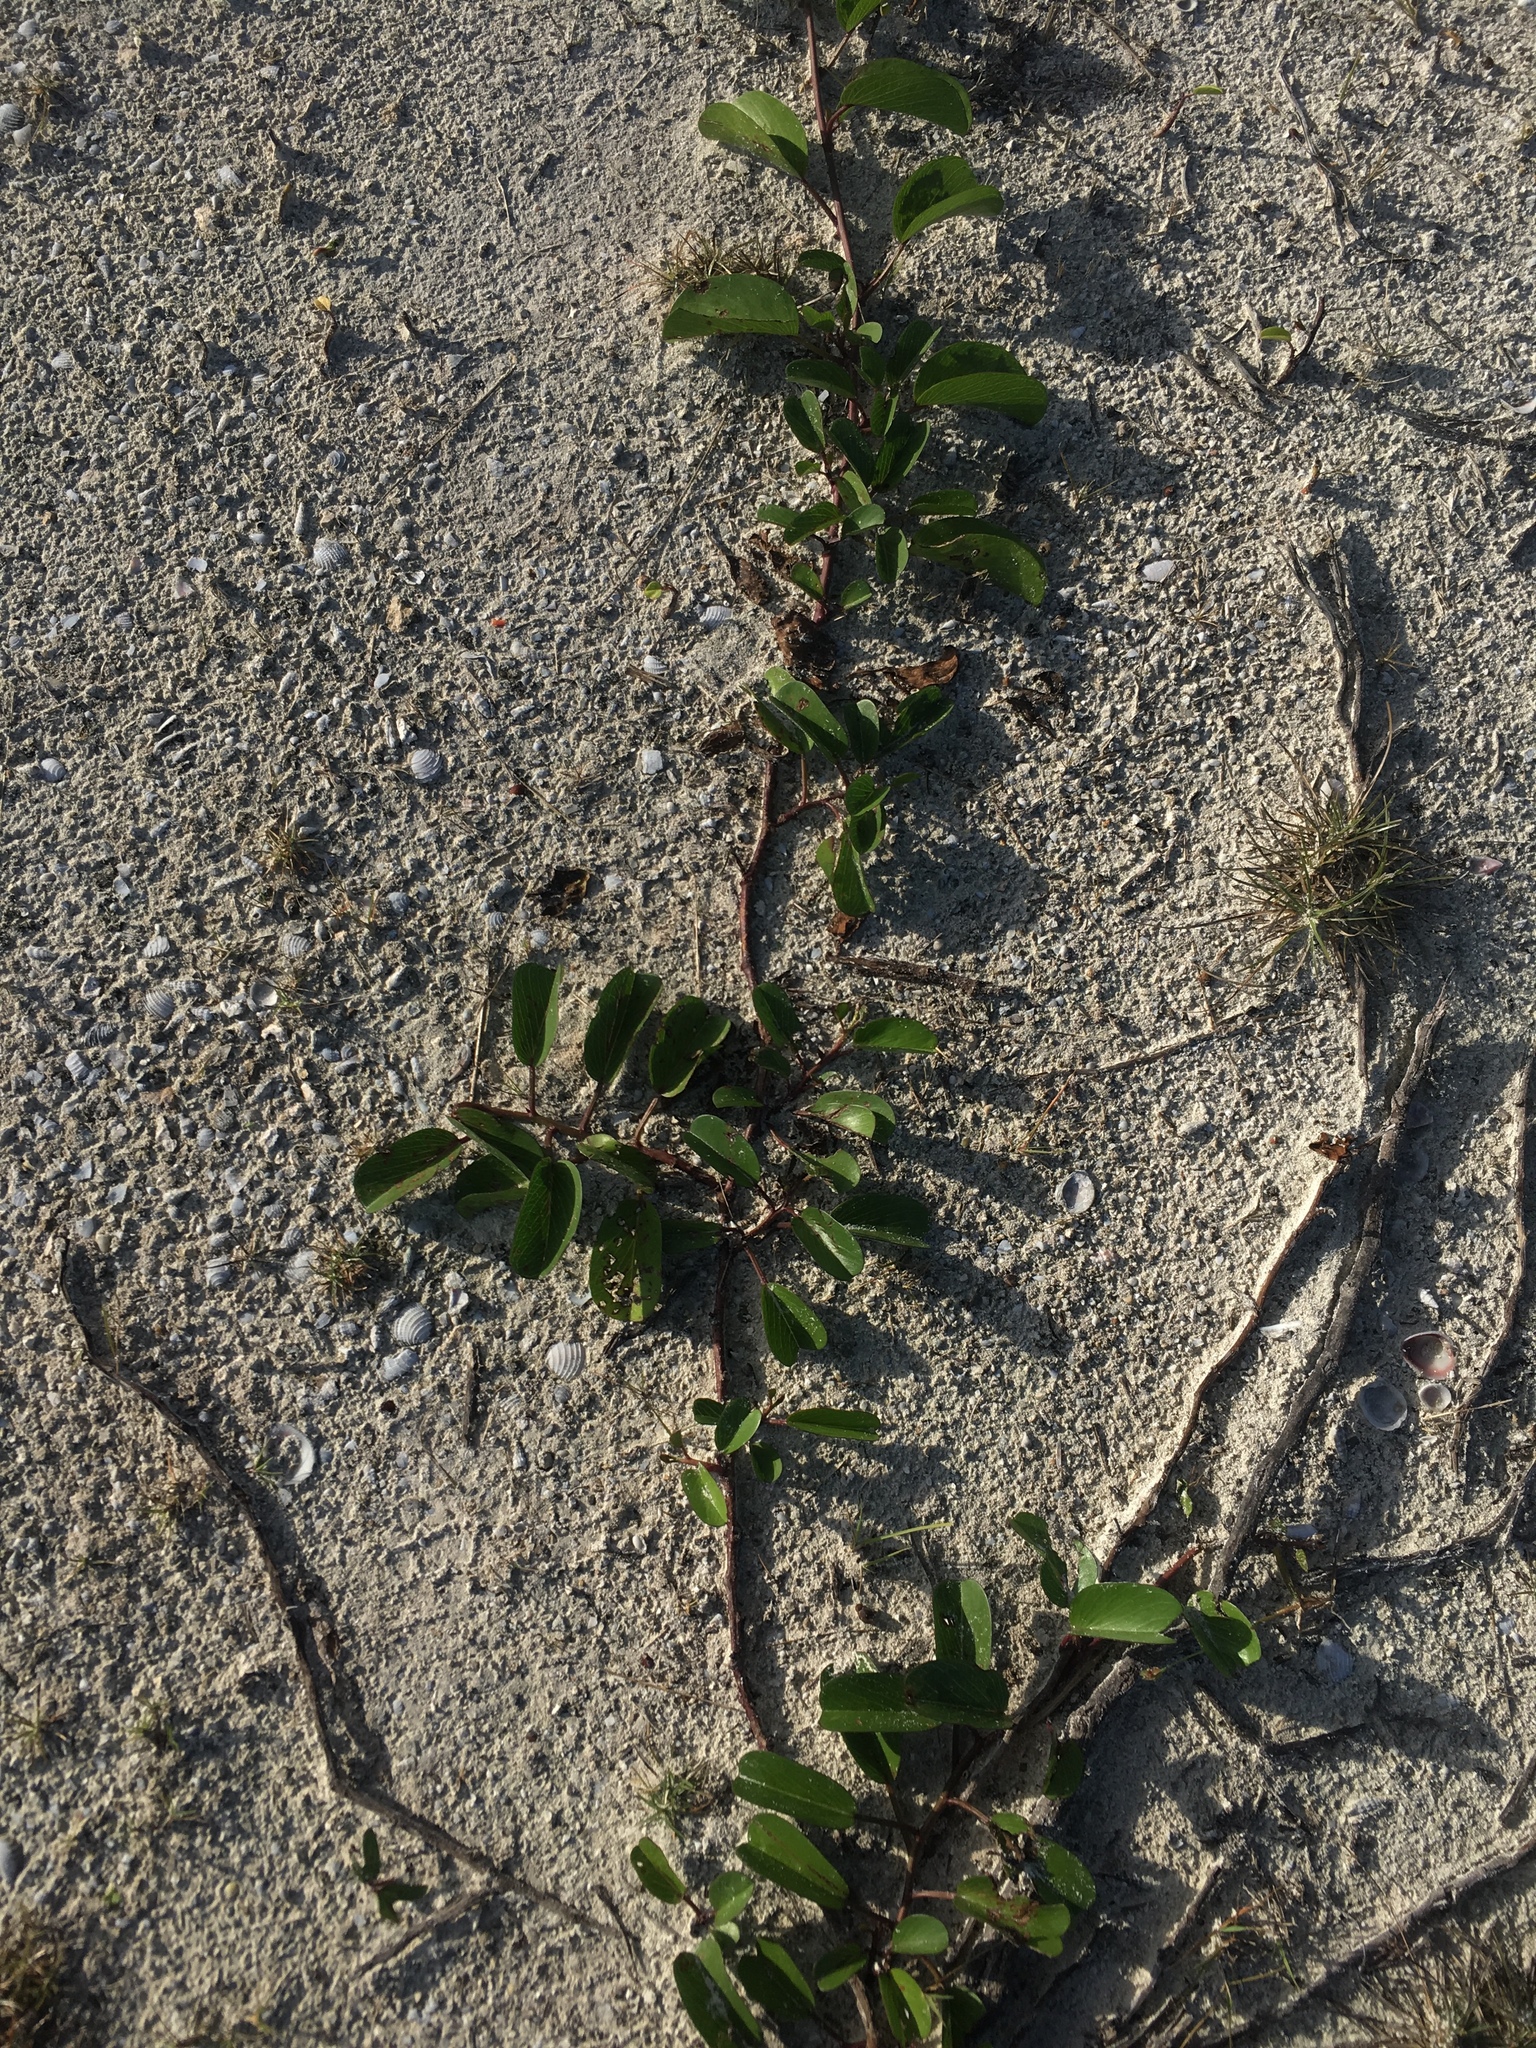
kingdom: Plantae
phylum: Tracheophyta
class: Magnoliopsida
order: Solanales
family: Convolvulaceae
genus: Ipomoea
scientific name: Ipomoea pes-caprae
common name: Beach morning glory
